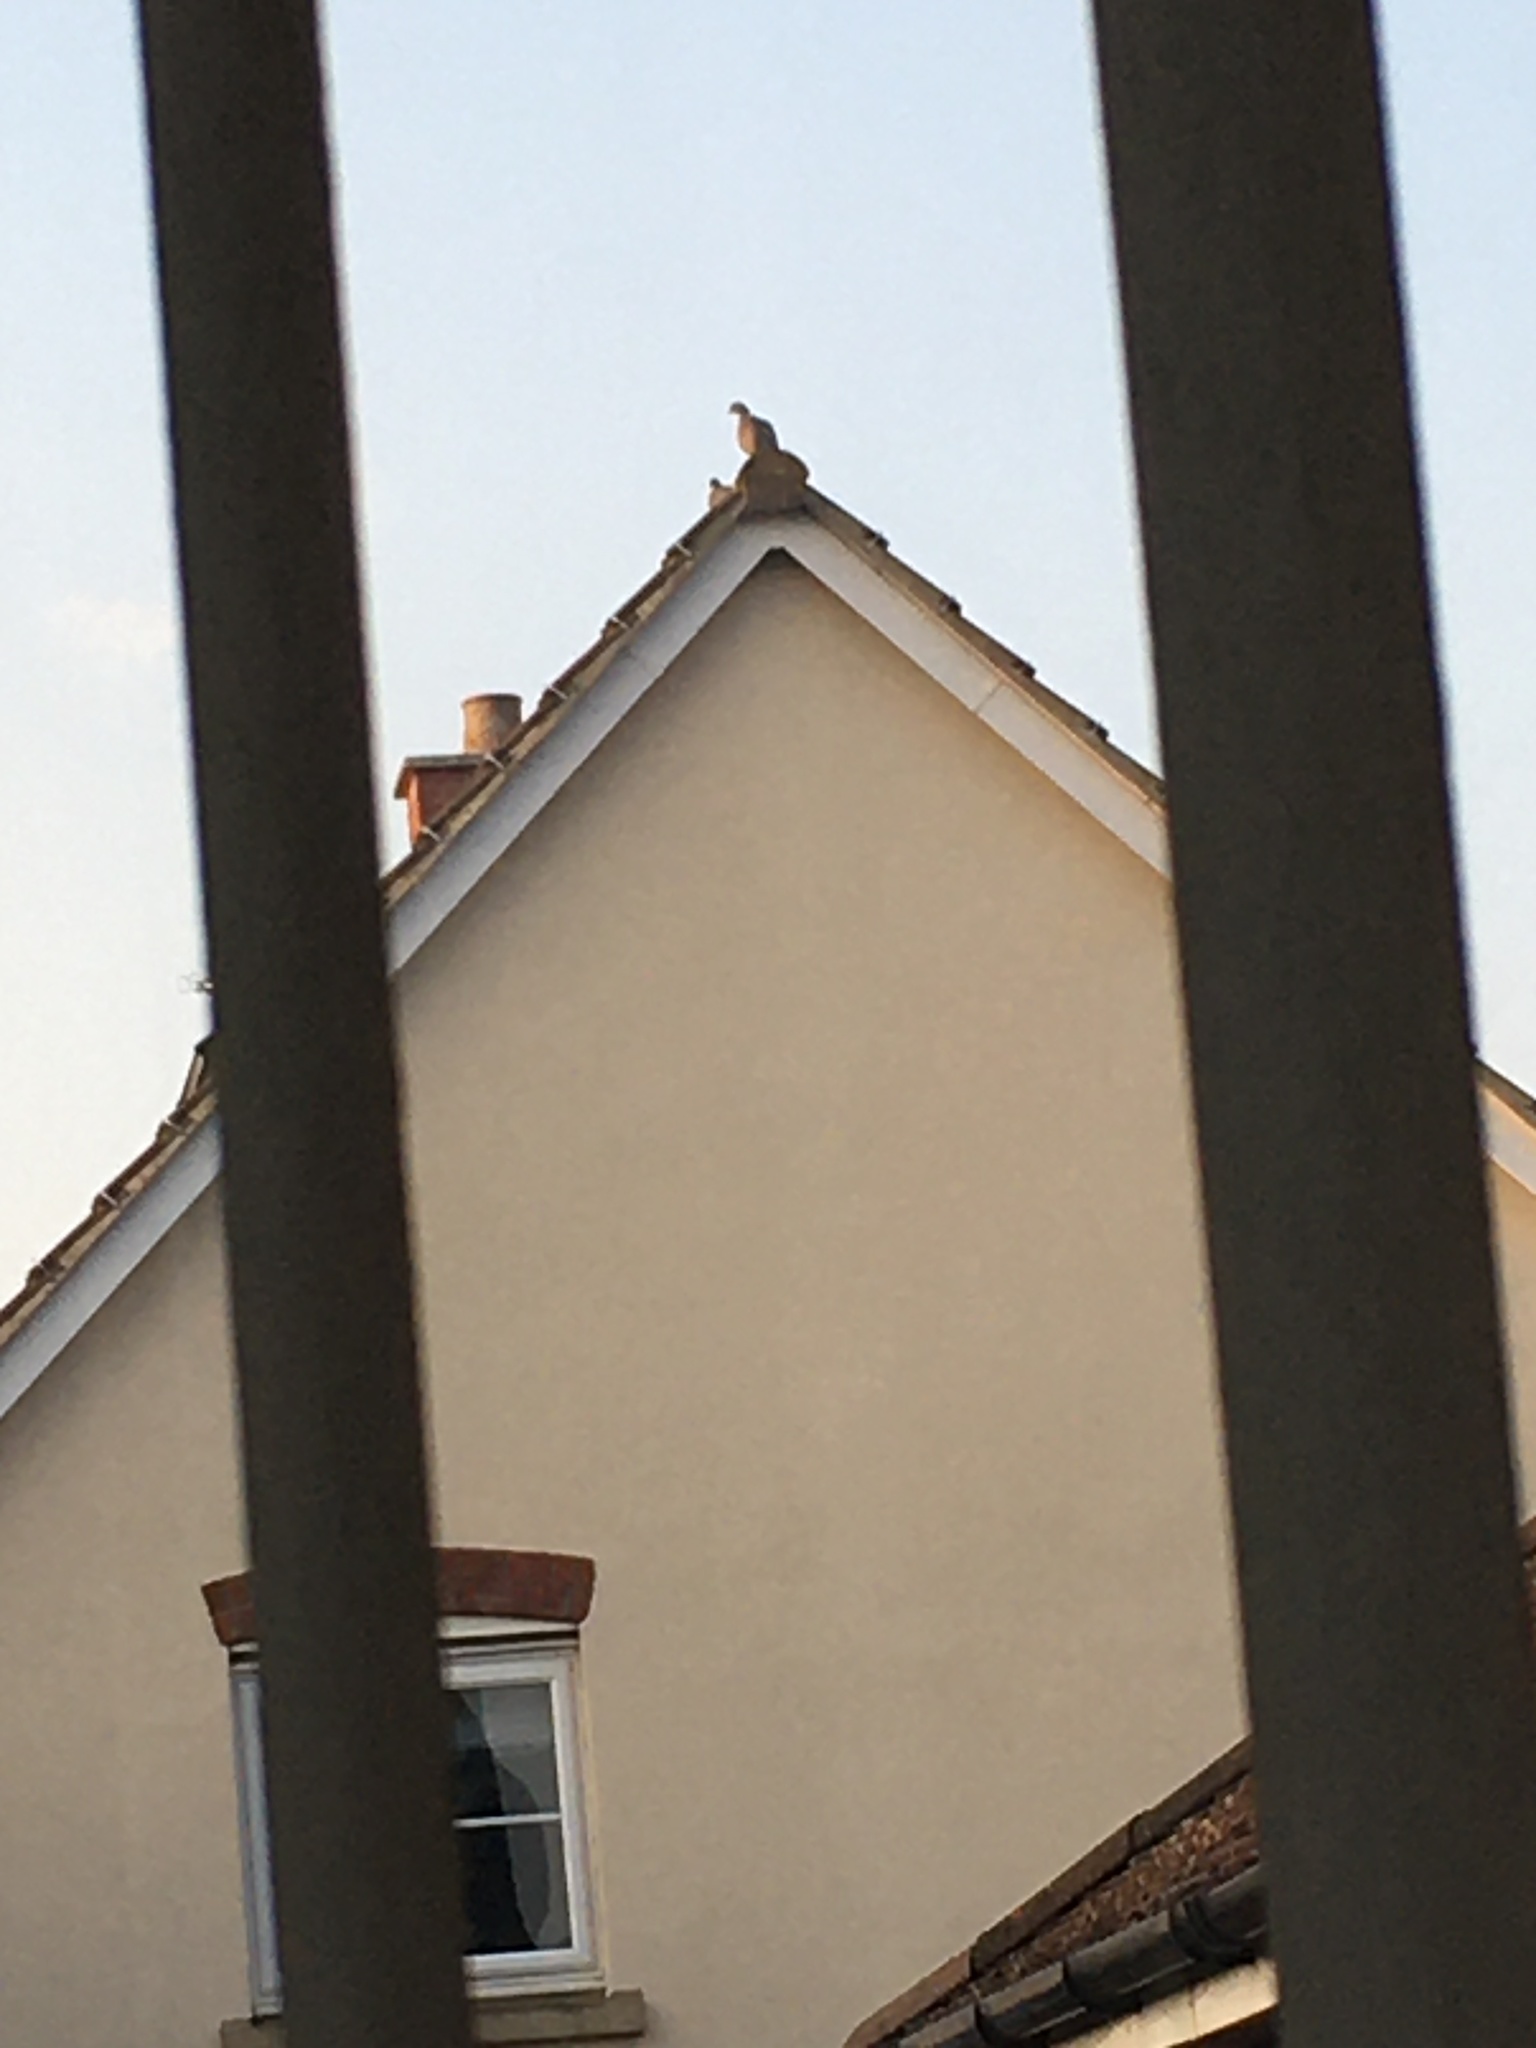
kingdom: Animalia
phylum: Chordata
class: Aves
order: Columbiformes
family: Columbidae
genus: Columba
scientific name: Columba palumbus
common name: Common wood pigeon
